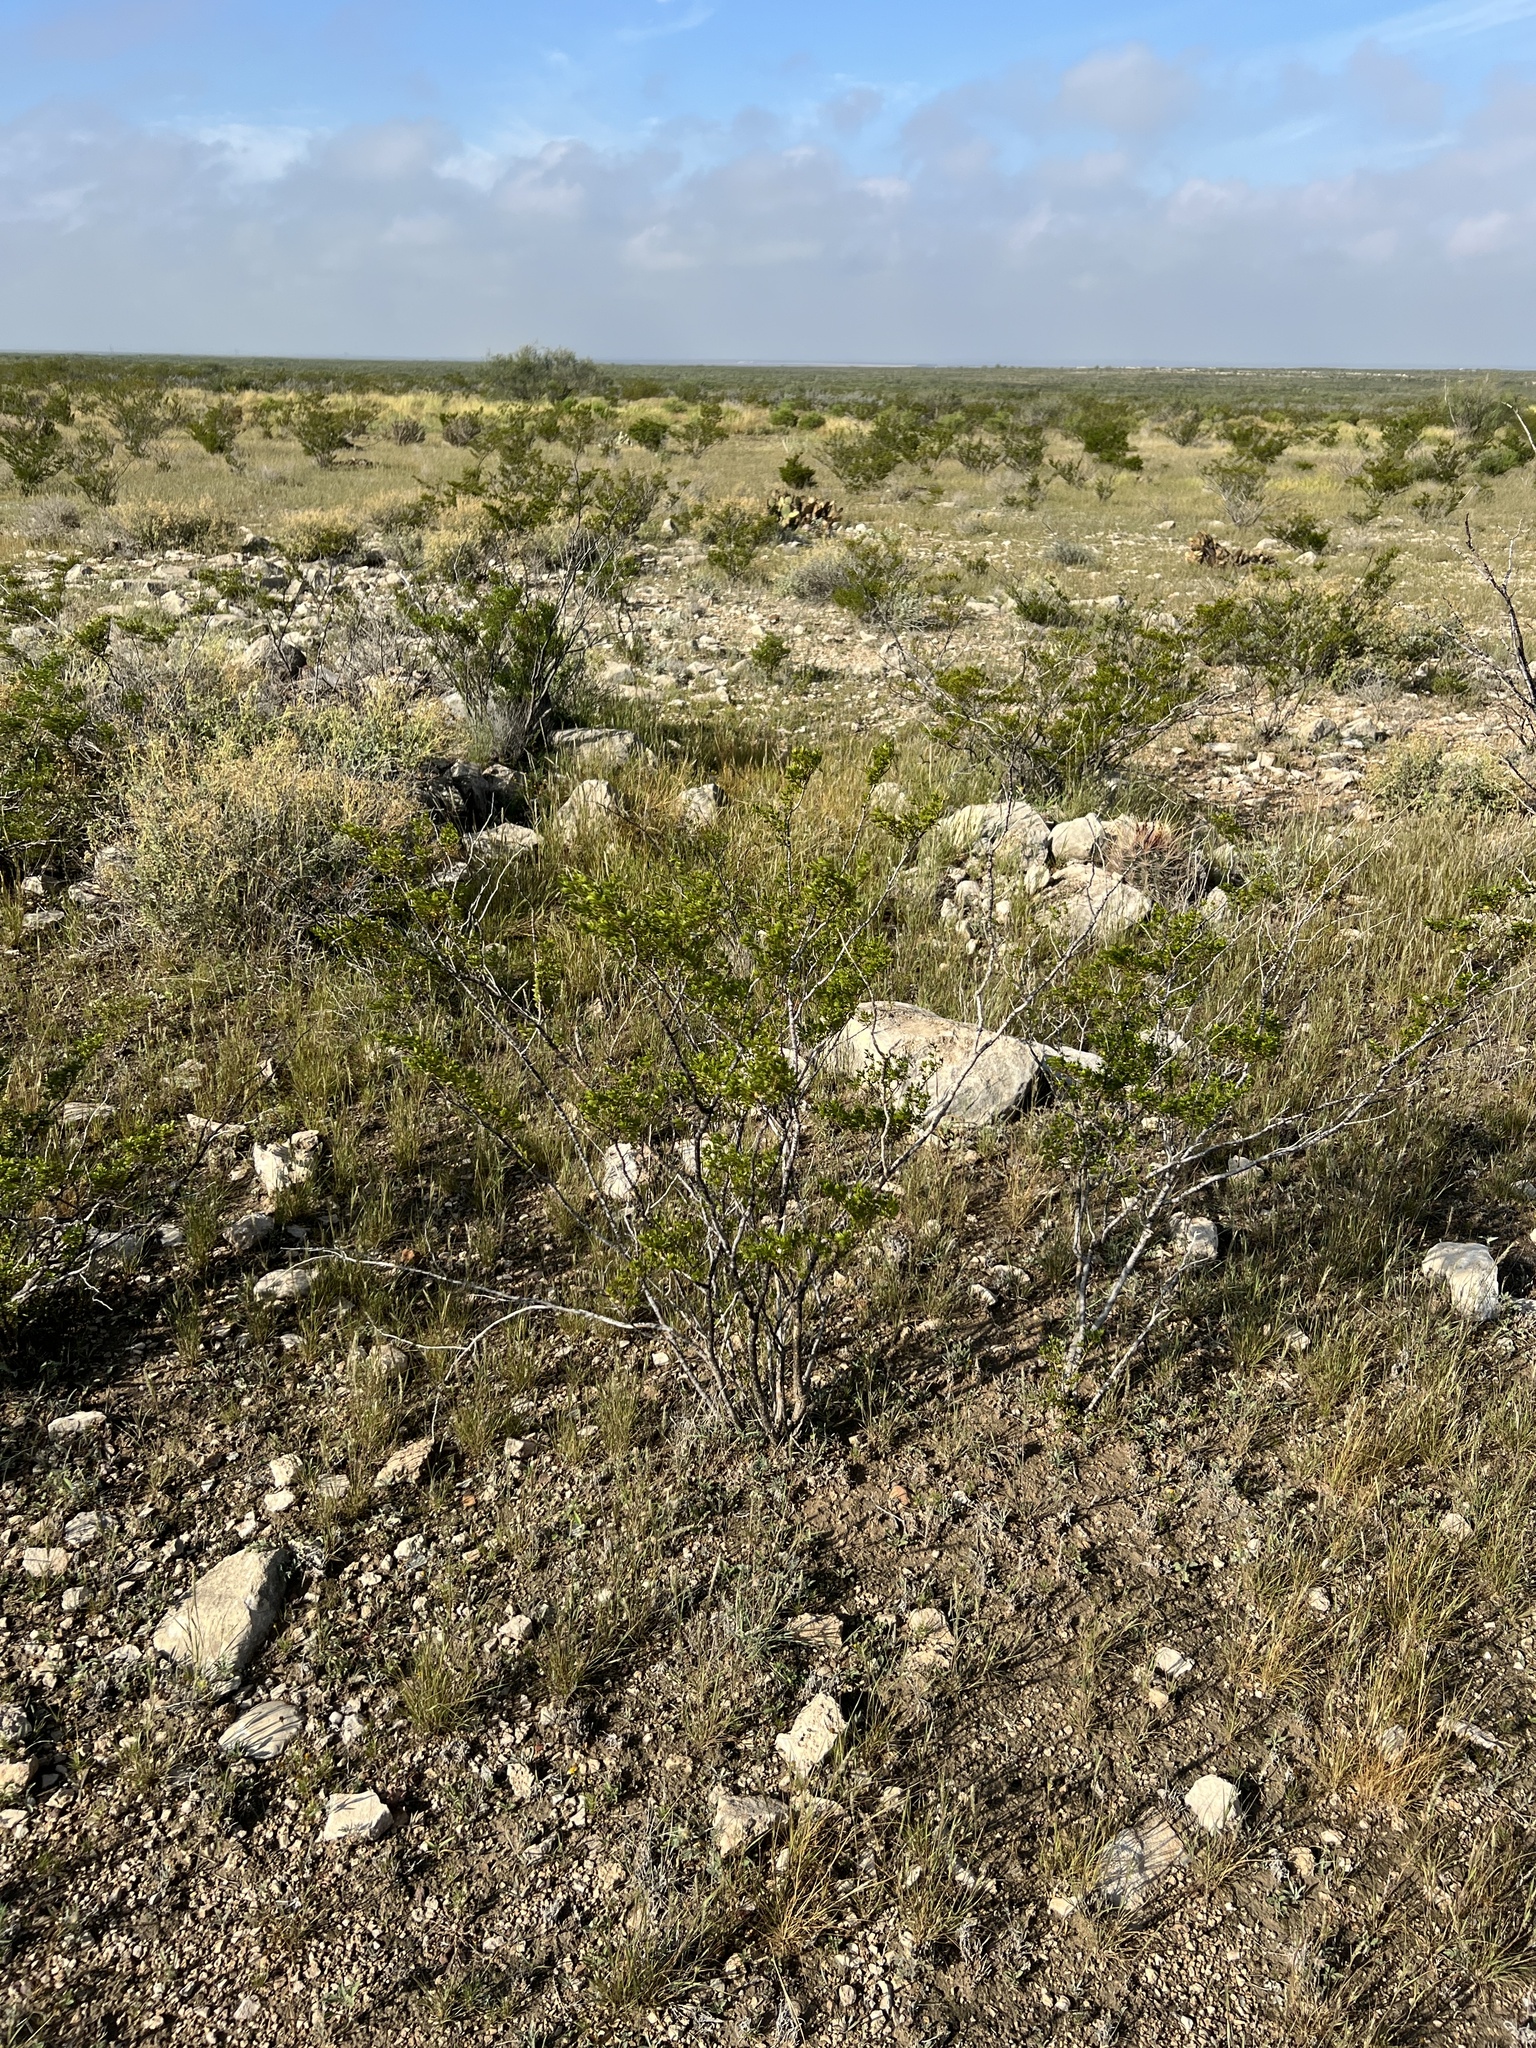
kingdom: Plantae
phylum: Tracheophyta
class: Magnoliopsida
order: Zygophyllales
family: Zygophyllaceae
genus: Larrea
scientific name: Larrea tridentata
